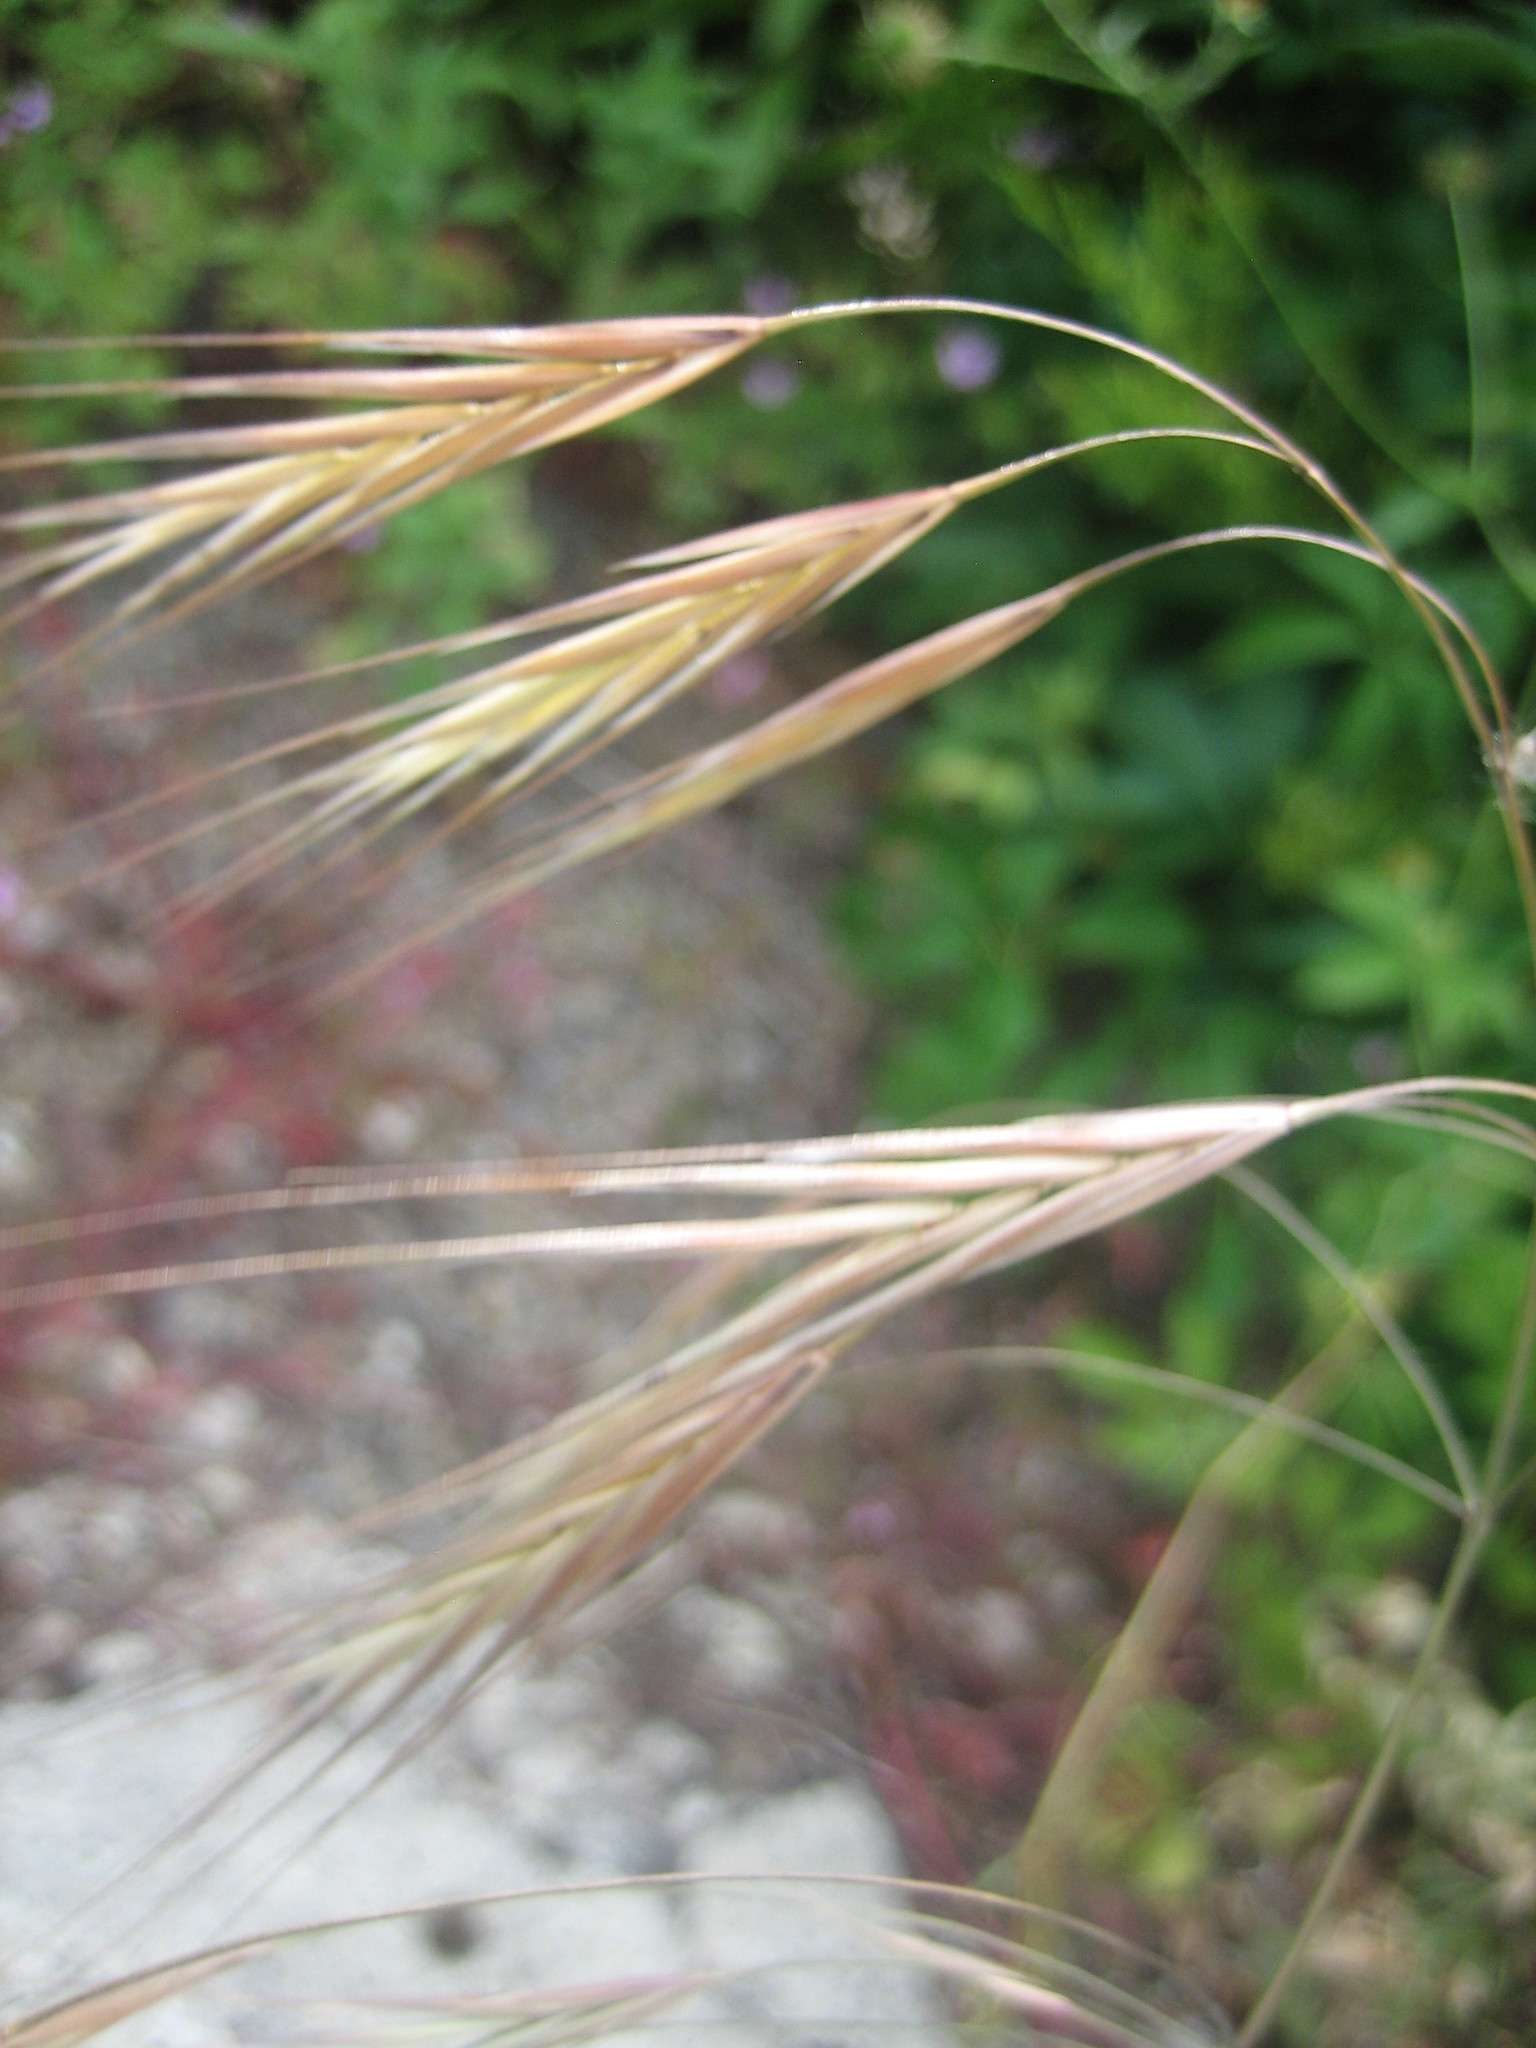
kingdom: Plantae
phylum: Tracheophyta
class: Liliopsida
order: Poales
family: Poaceae
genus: Bromus
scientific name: Bromus sterilis
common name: Poverty brome
